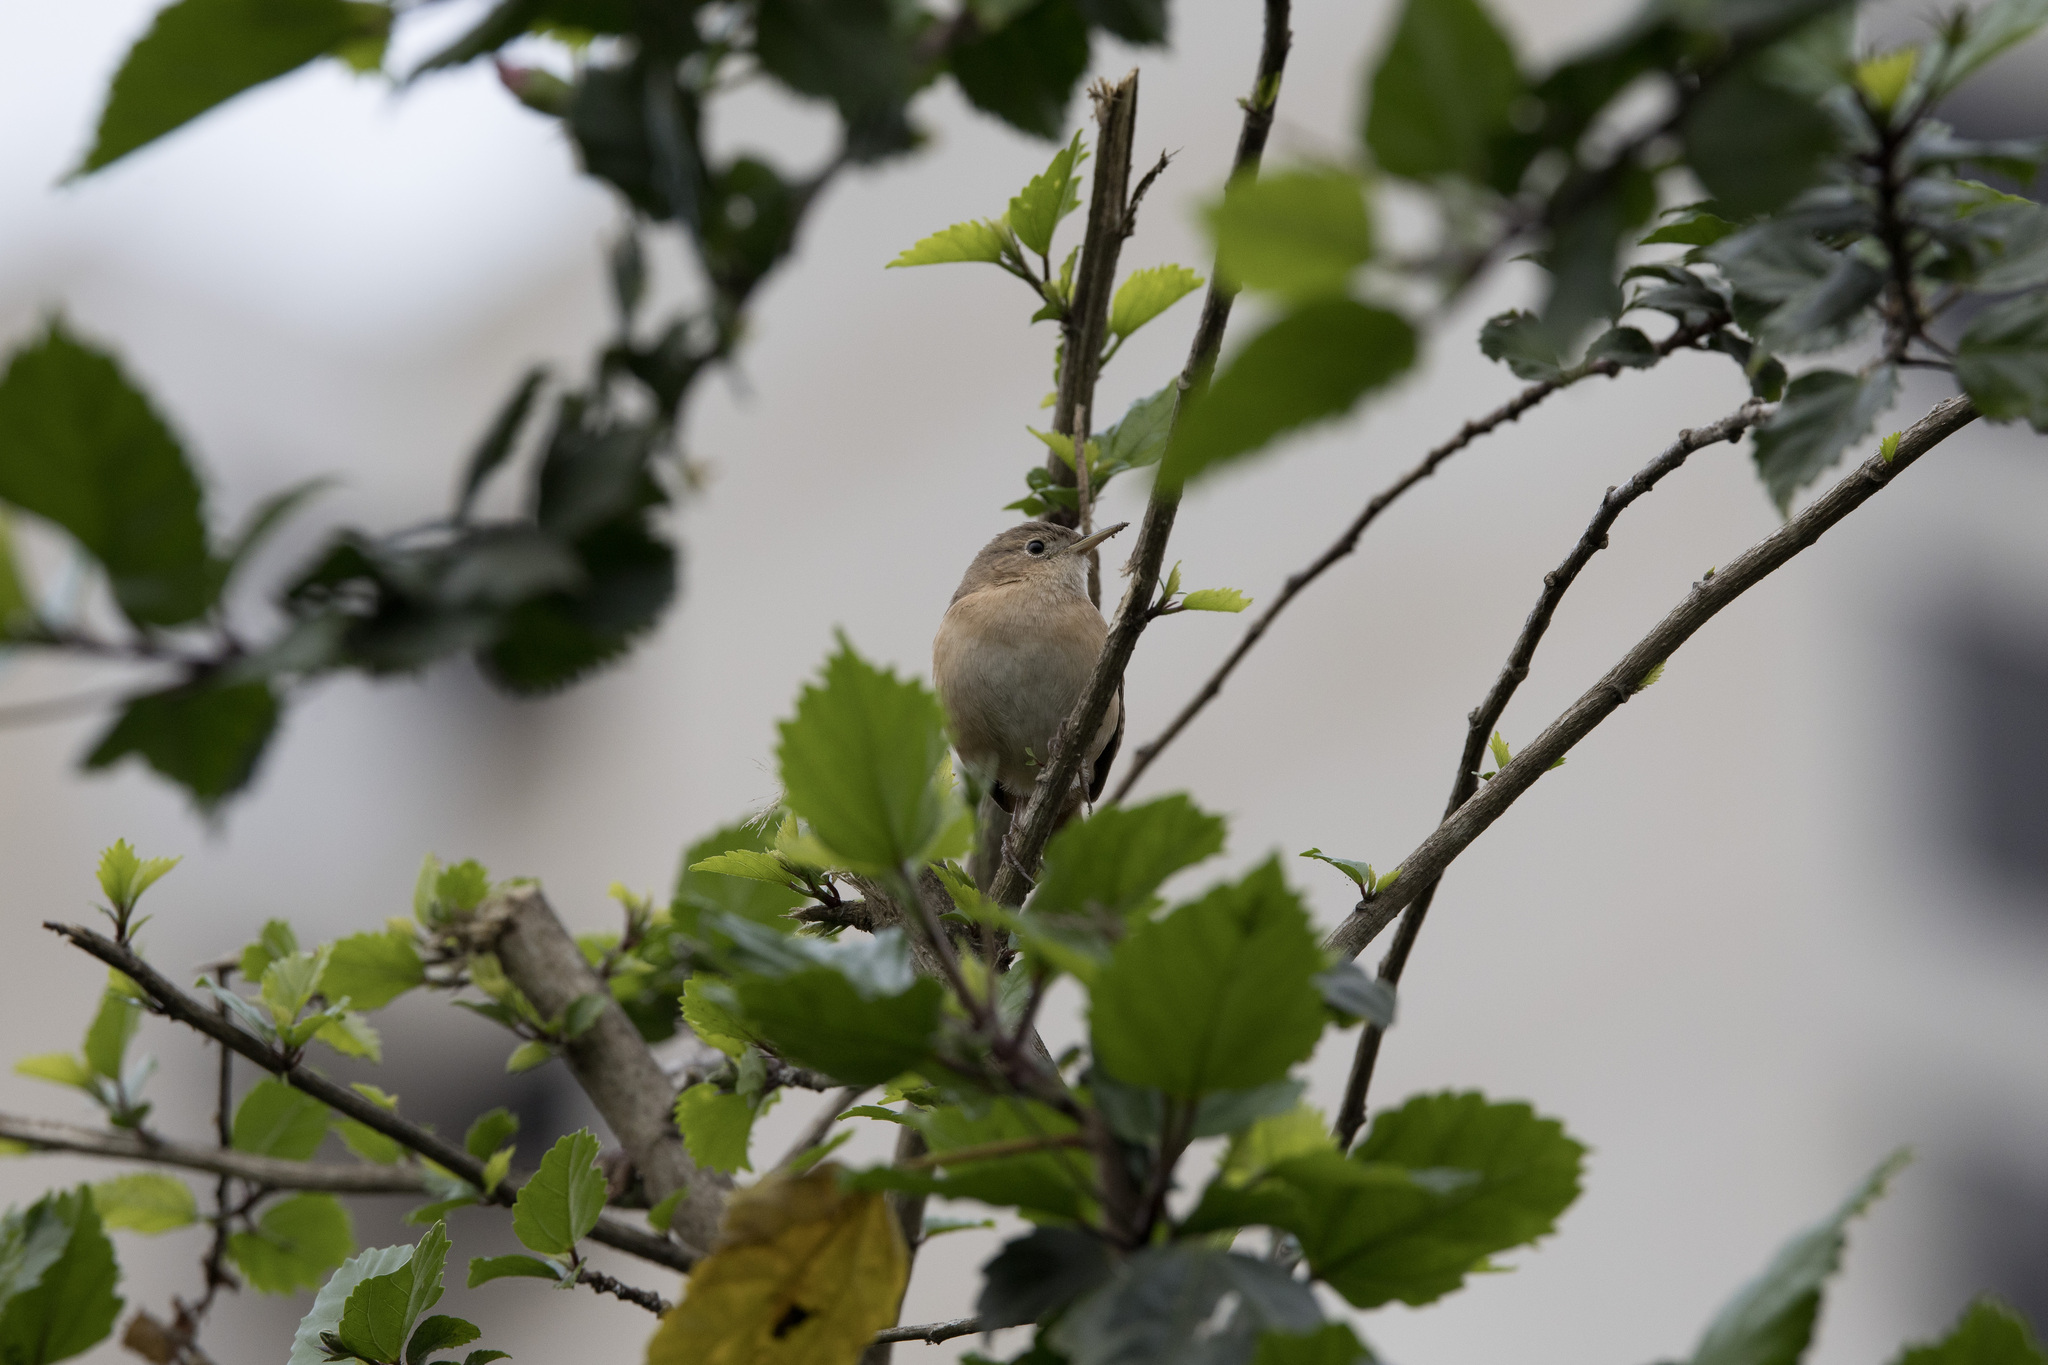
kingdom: Animalia
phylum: Chordata
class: Aves
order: Passeriformes
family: Troglodytidae
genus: Troglodytes
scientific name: Troglodytes aedon
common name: House wren
